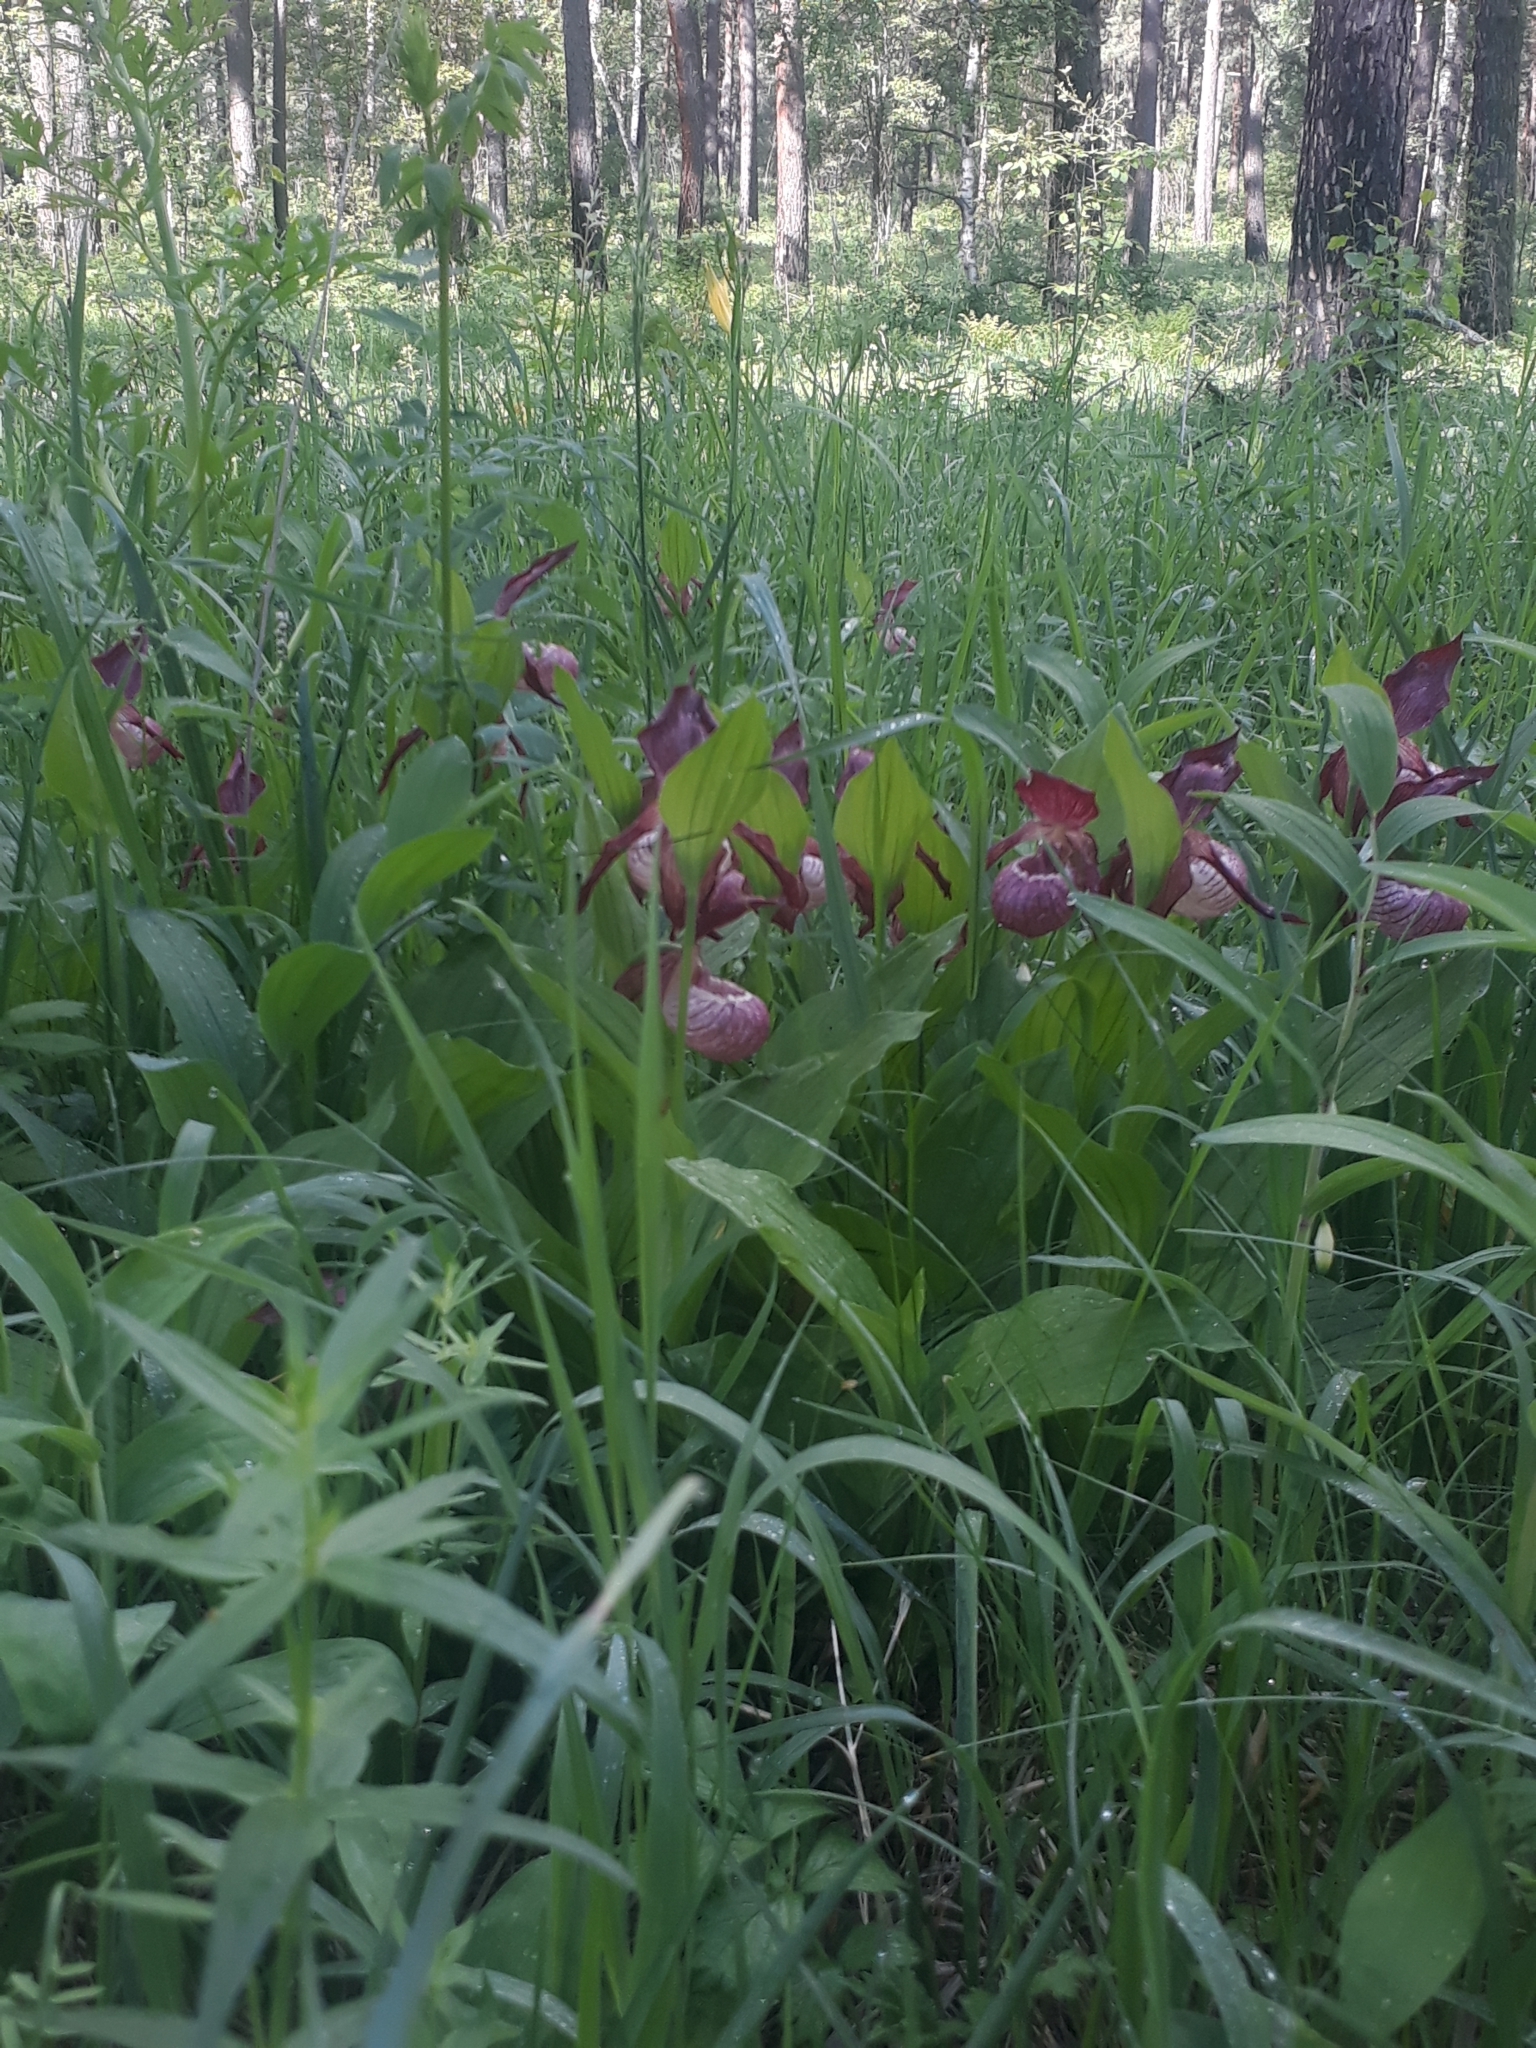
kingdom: Plantae
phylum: Tracheophyta
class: Liliopsida
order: Asparagales
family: Orchidaceae
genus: Cypripedium
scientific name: Cypripedium macranthos
